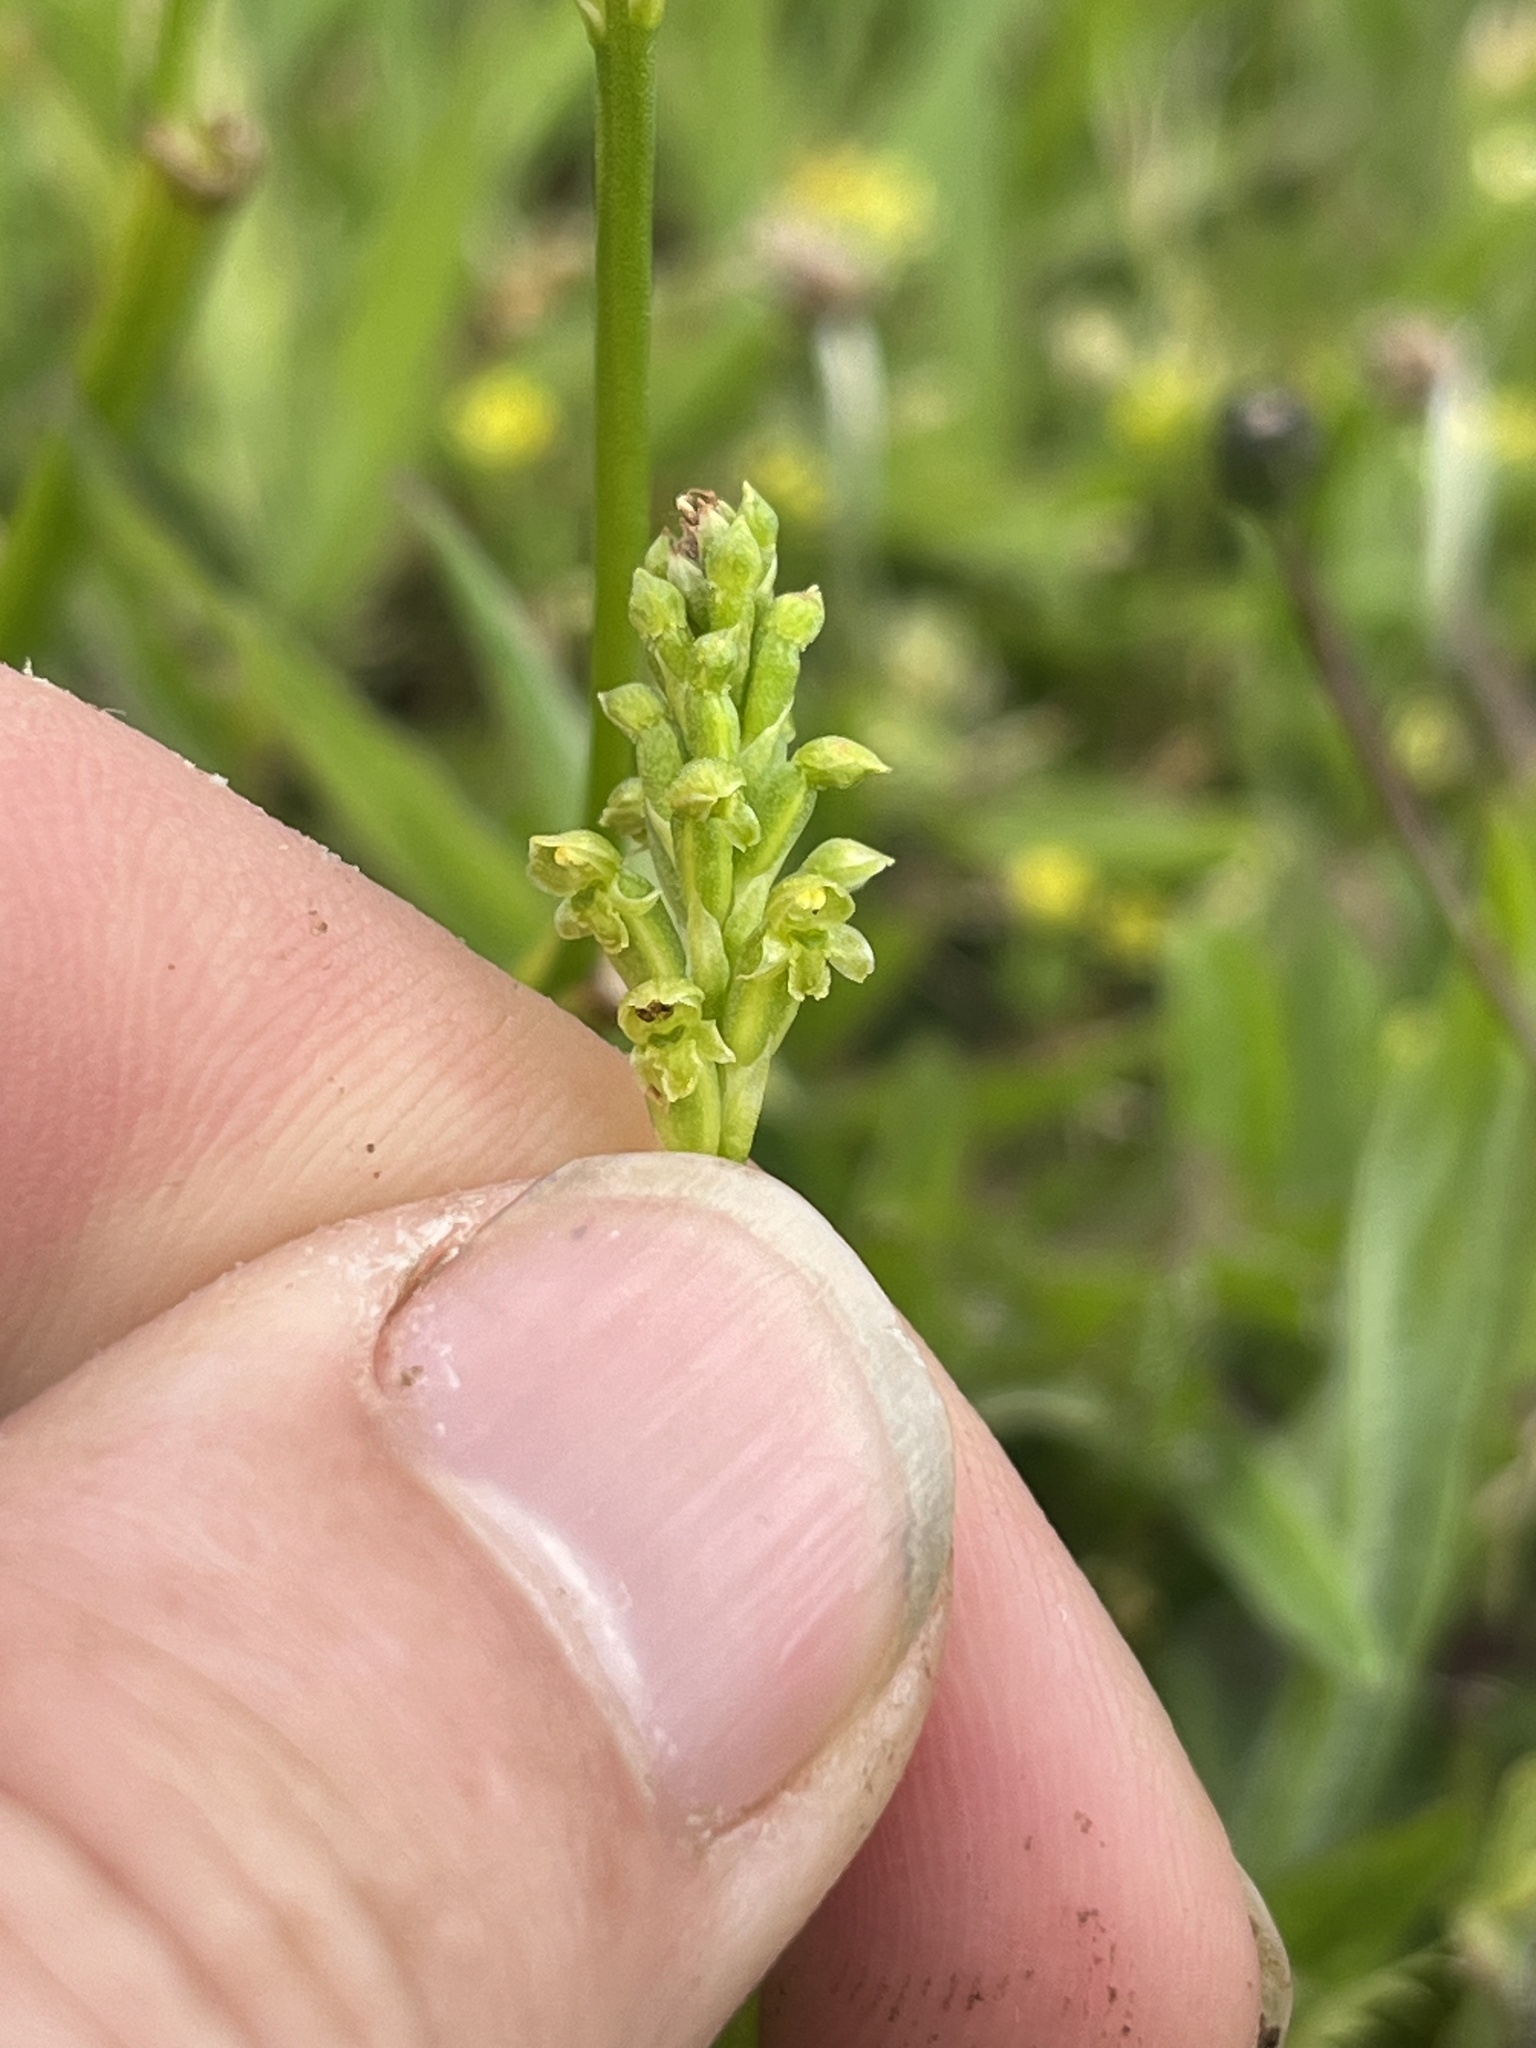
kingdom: Plantae
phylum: Tracheophyta
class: Liliopsida
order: Asparagales
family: Orchidaceae
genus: Microtis
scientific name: Microtis unifolia
